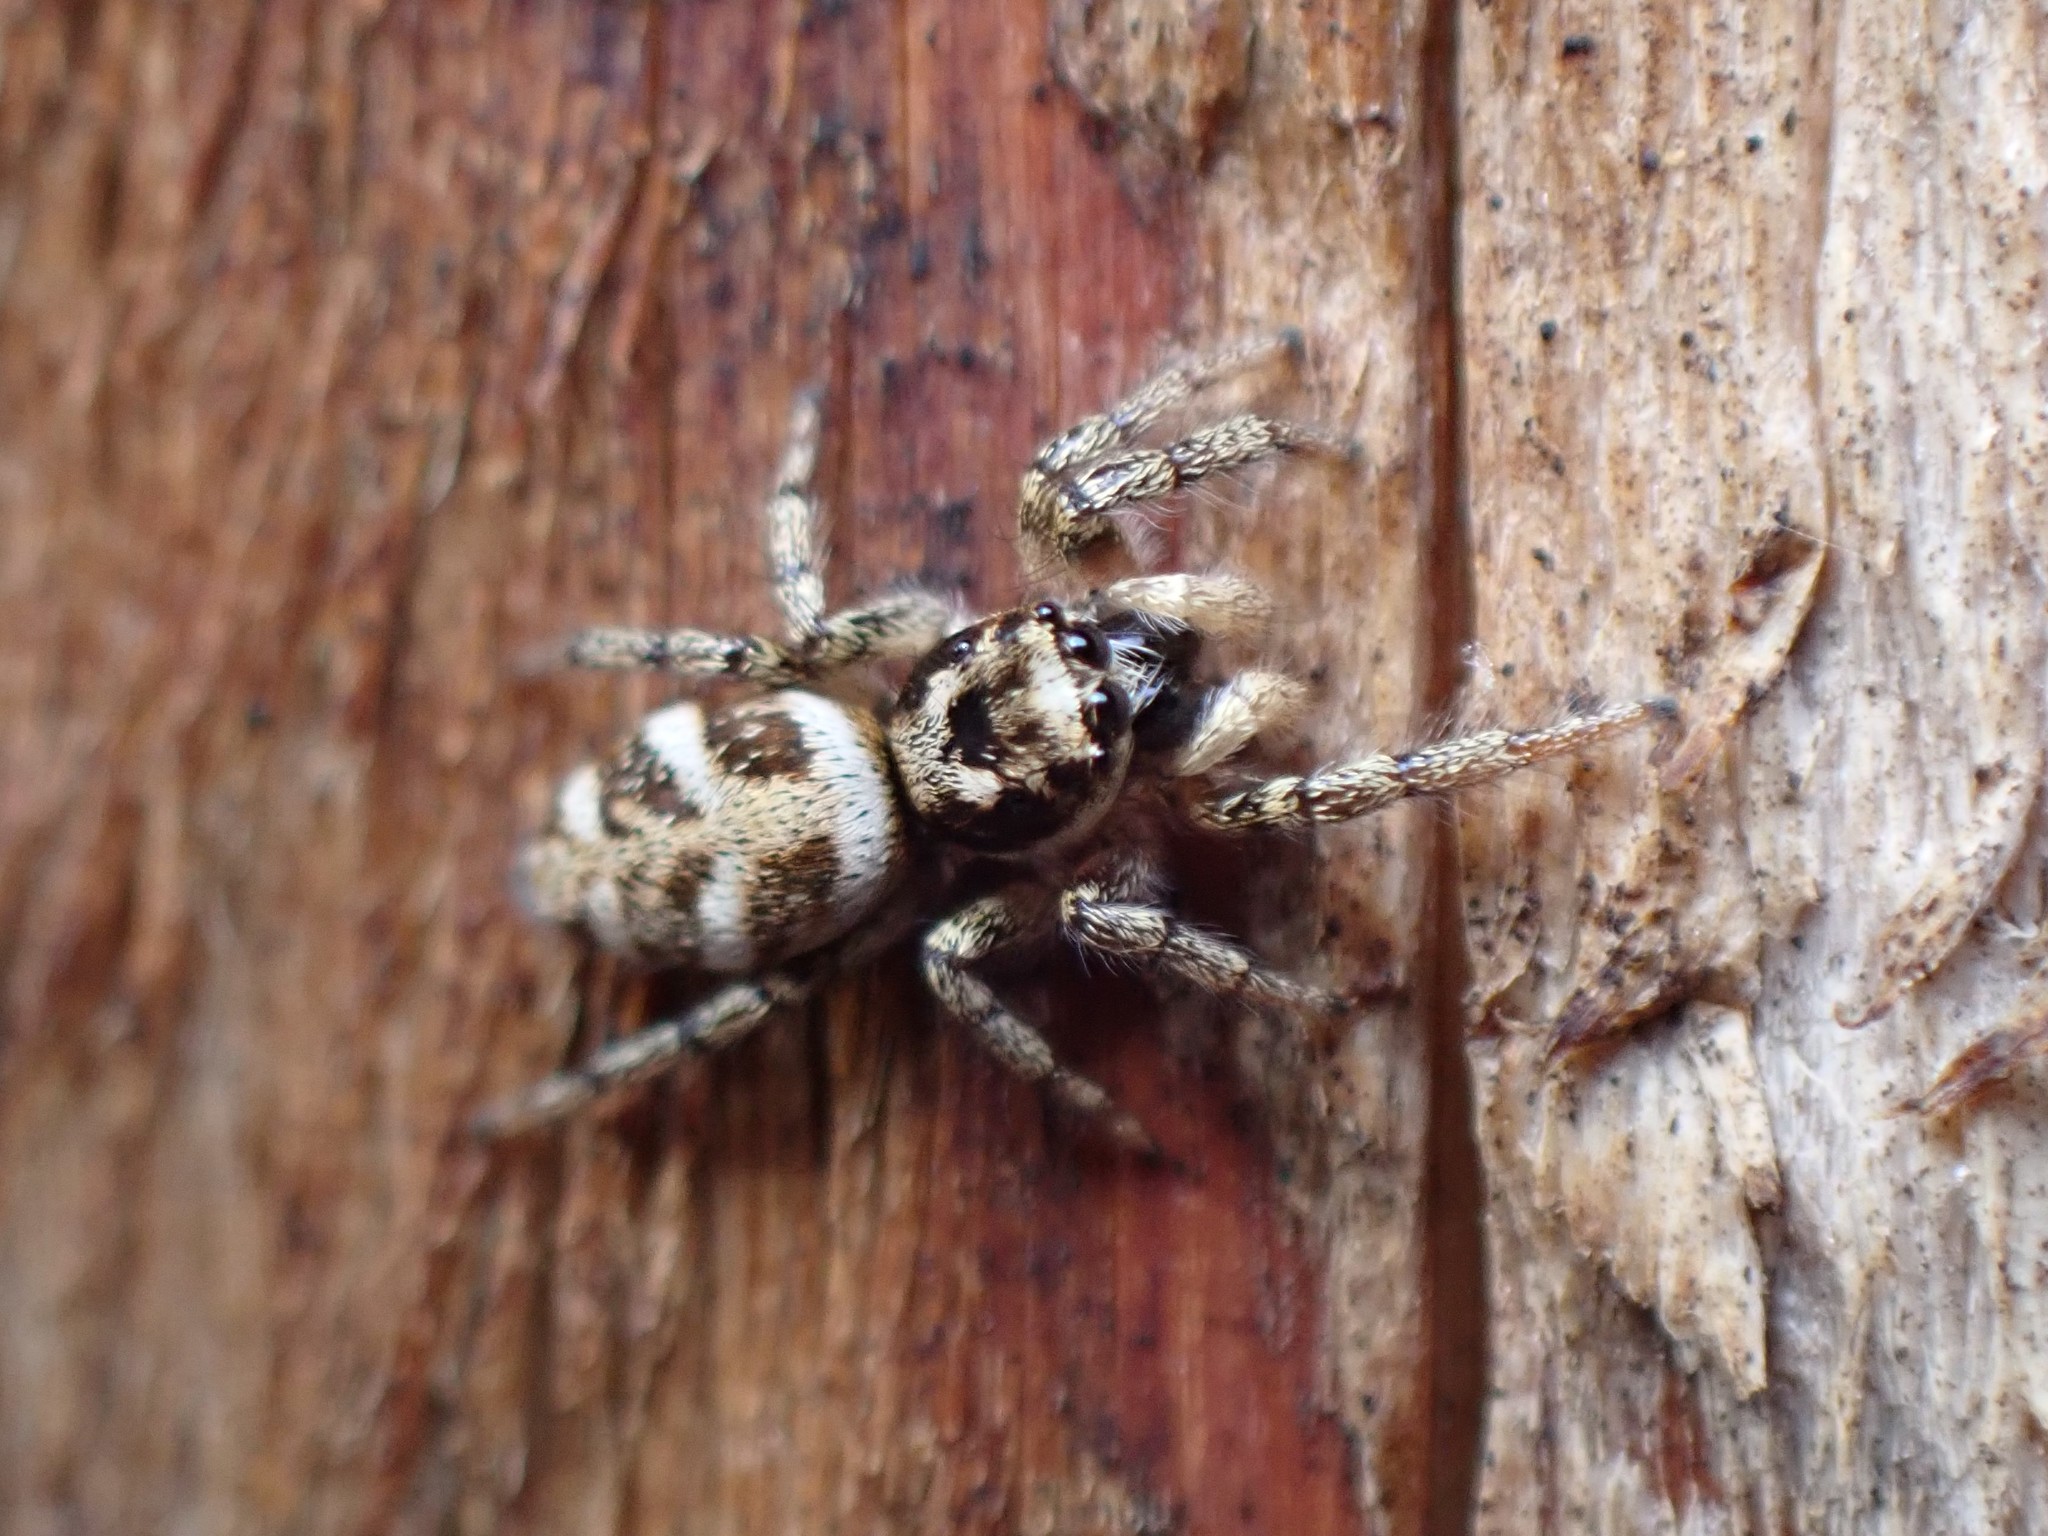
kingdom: Animalia
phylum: Arthropoda
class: Arachnida
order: Araneae
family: Salticidae
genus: Salticus
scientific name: Salticus scenicus
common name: Zebra jumper
